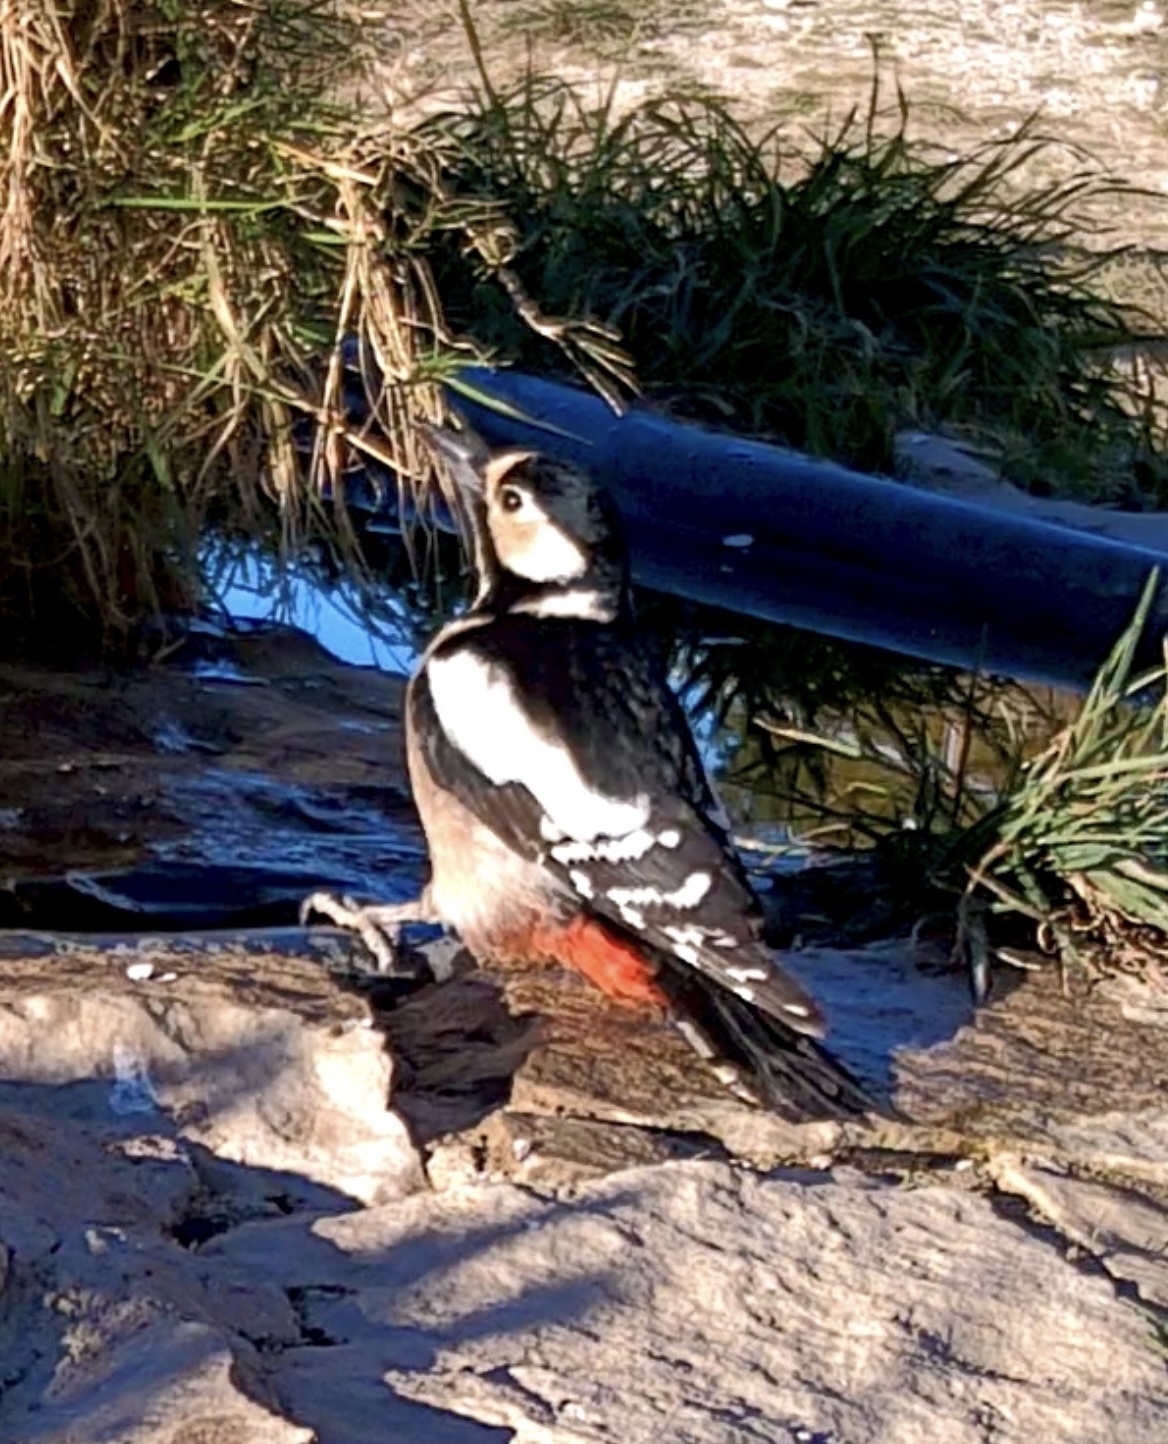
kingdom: Animalia
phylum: Chordata
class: Aves
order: Piciformes
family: Picidae
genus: Dendrocopos
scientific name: Dendrocopos major
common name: Great spotted woodpecker
